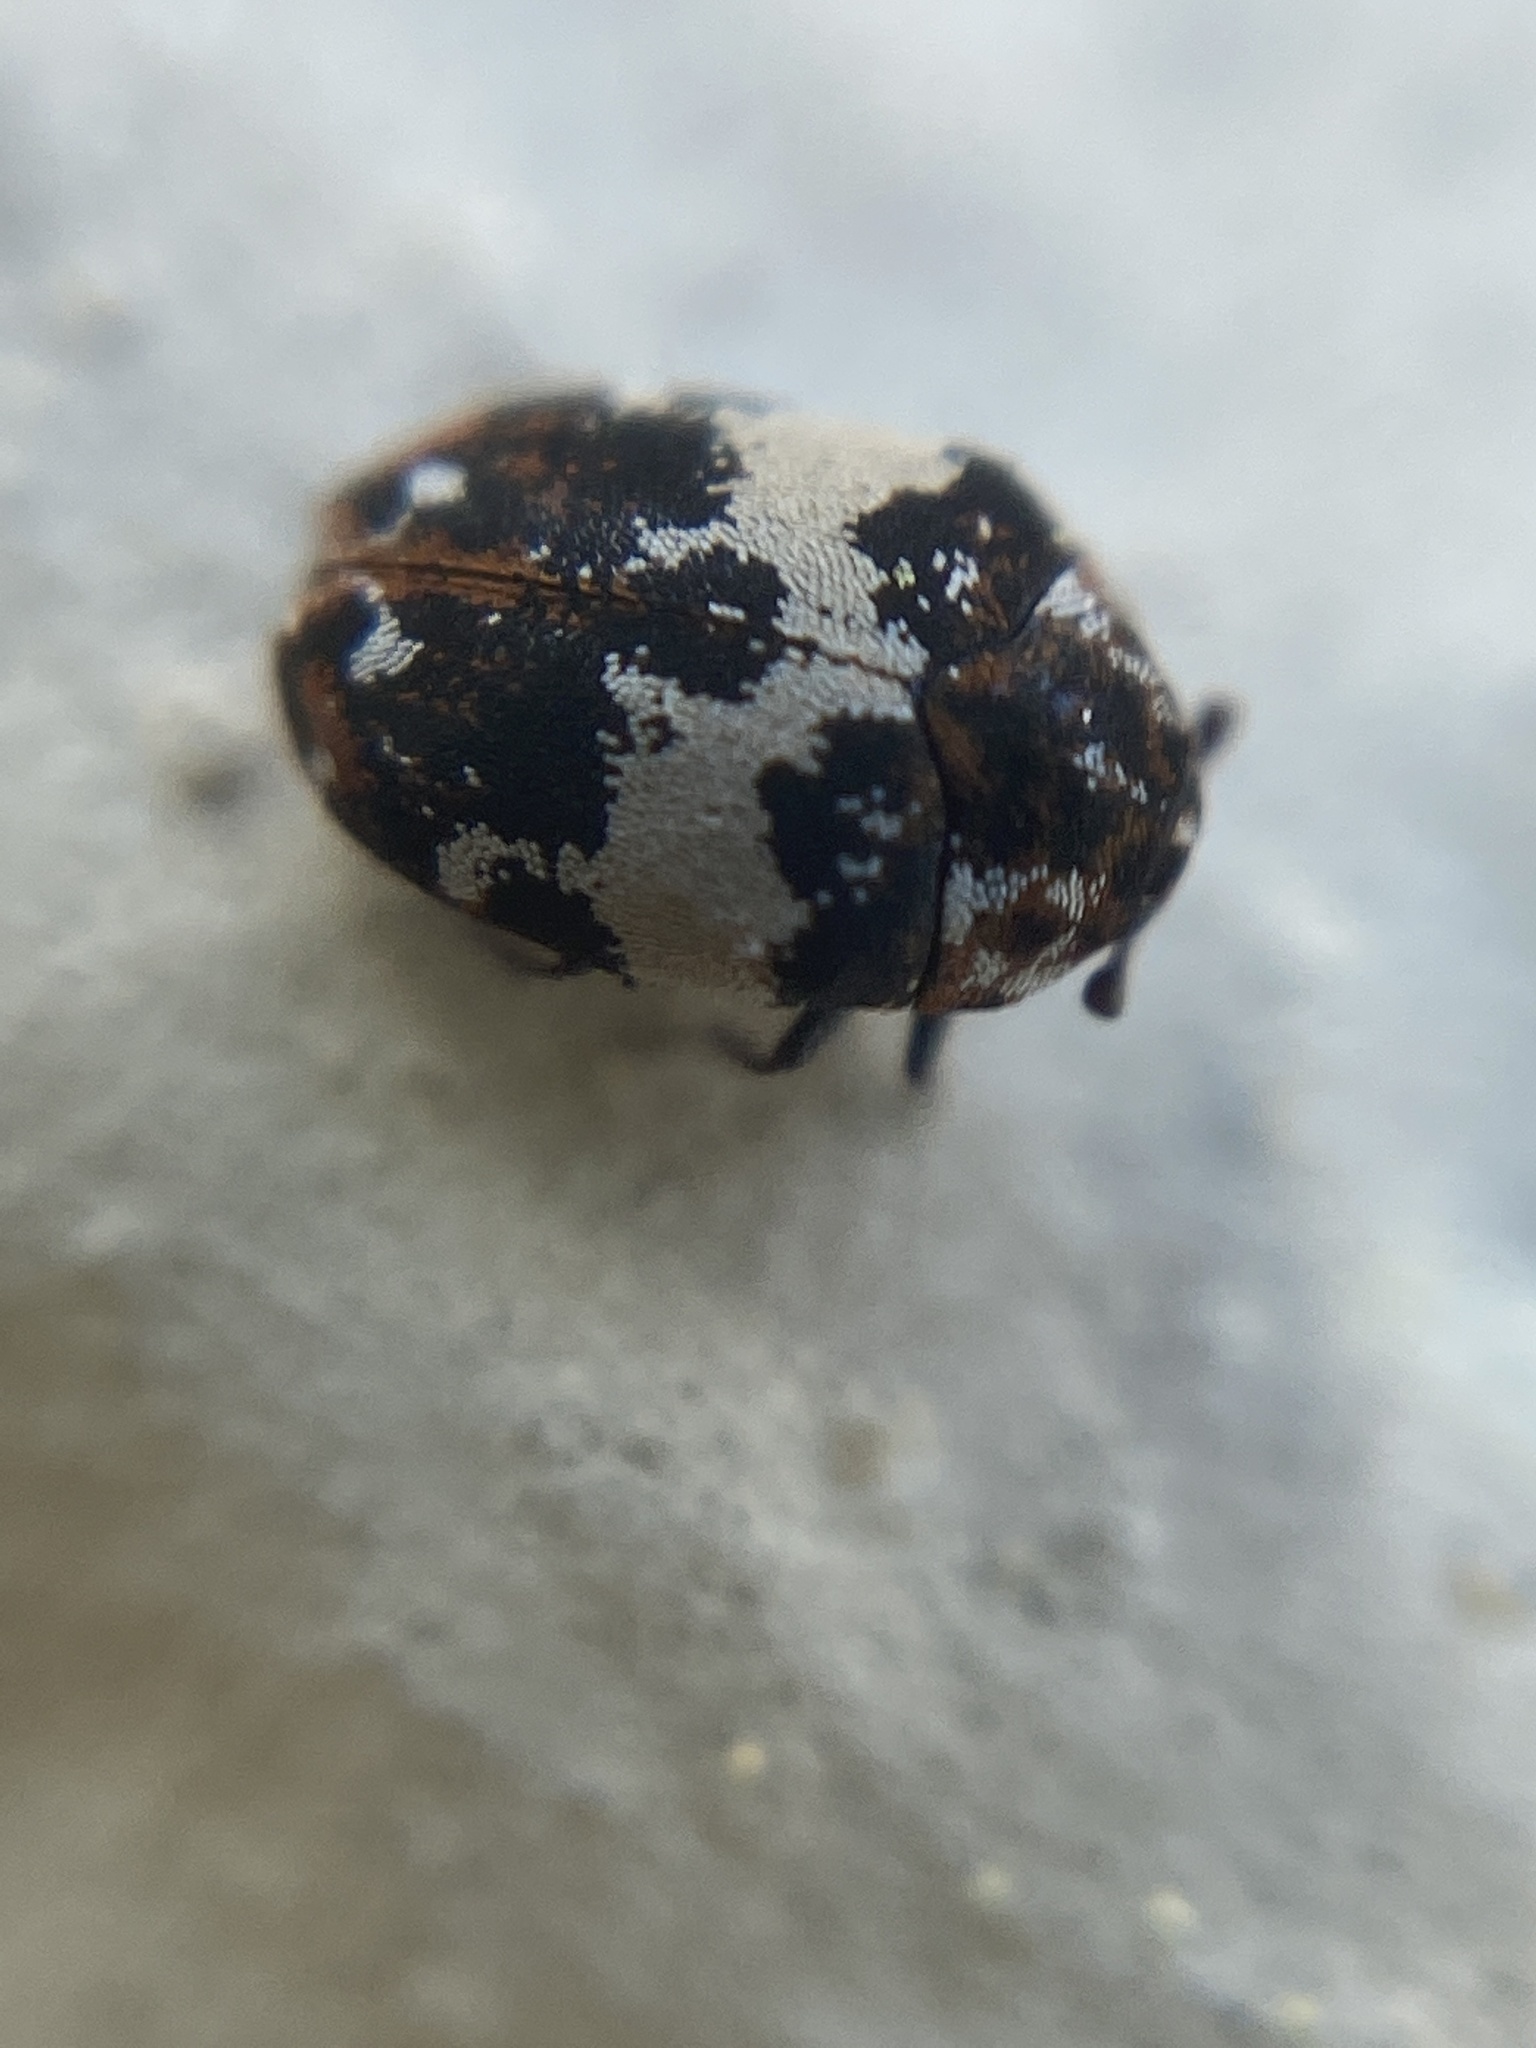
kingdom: Animalia
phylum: Arthropoda
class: Insecta
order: Coleoptera
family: Dermestidae
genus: Anthrenus
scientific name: Anthrenus pimpinellae
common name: Dermestid beetle
